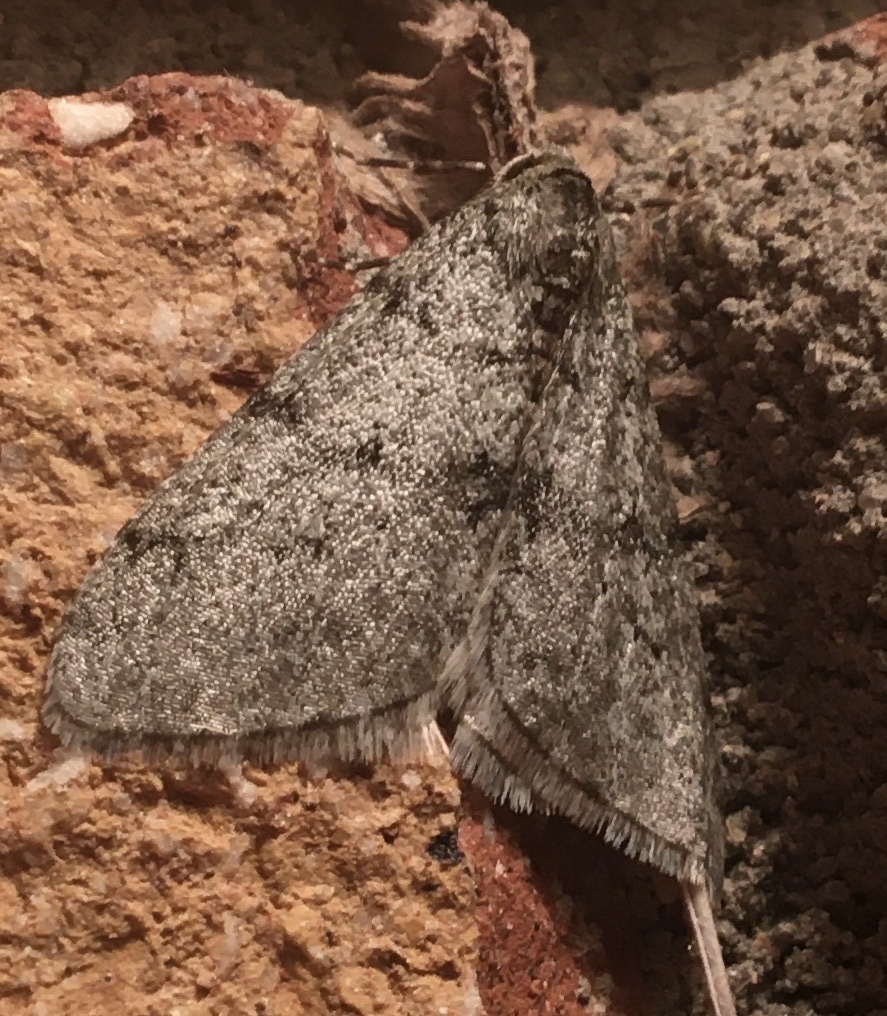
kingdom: Animalia
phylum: Arthropoda
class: Insecta
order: Lepidoptera
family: Geometridae
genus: Phigalia
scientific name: Phigalia strigataria
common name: Small phigalia
